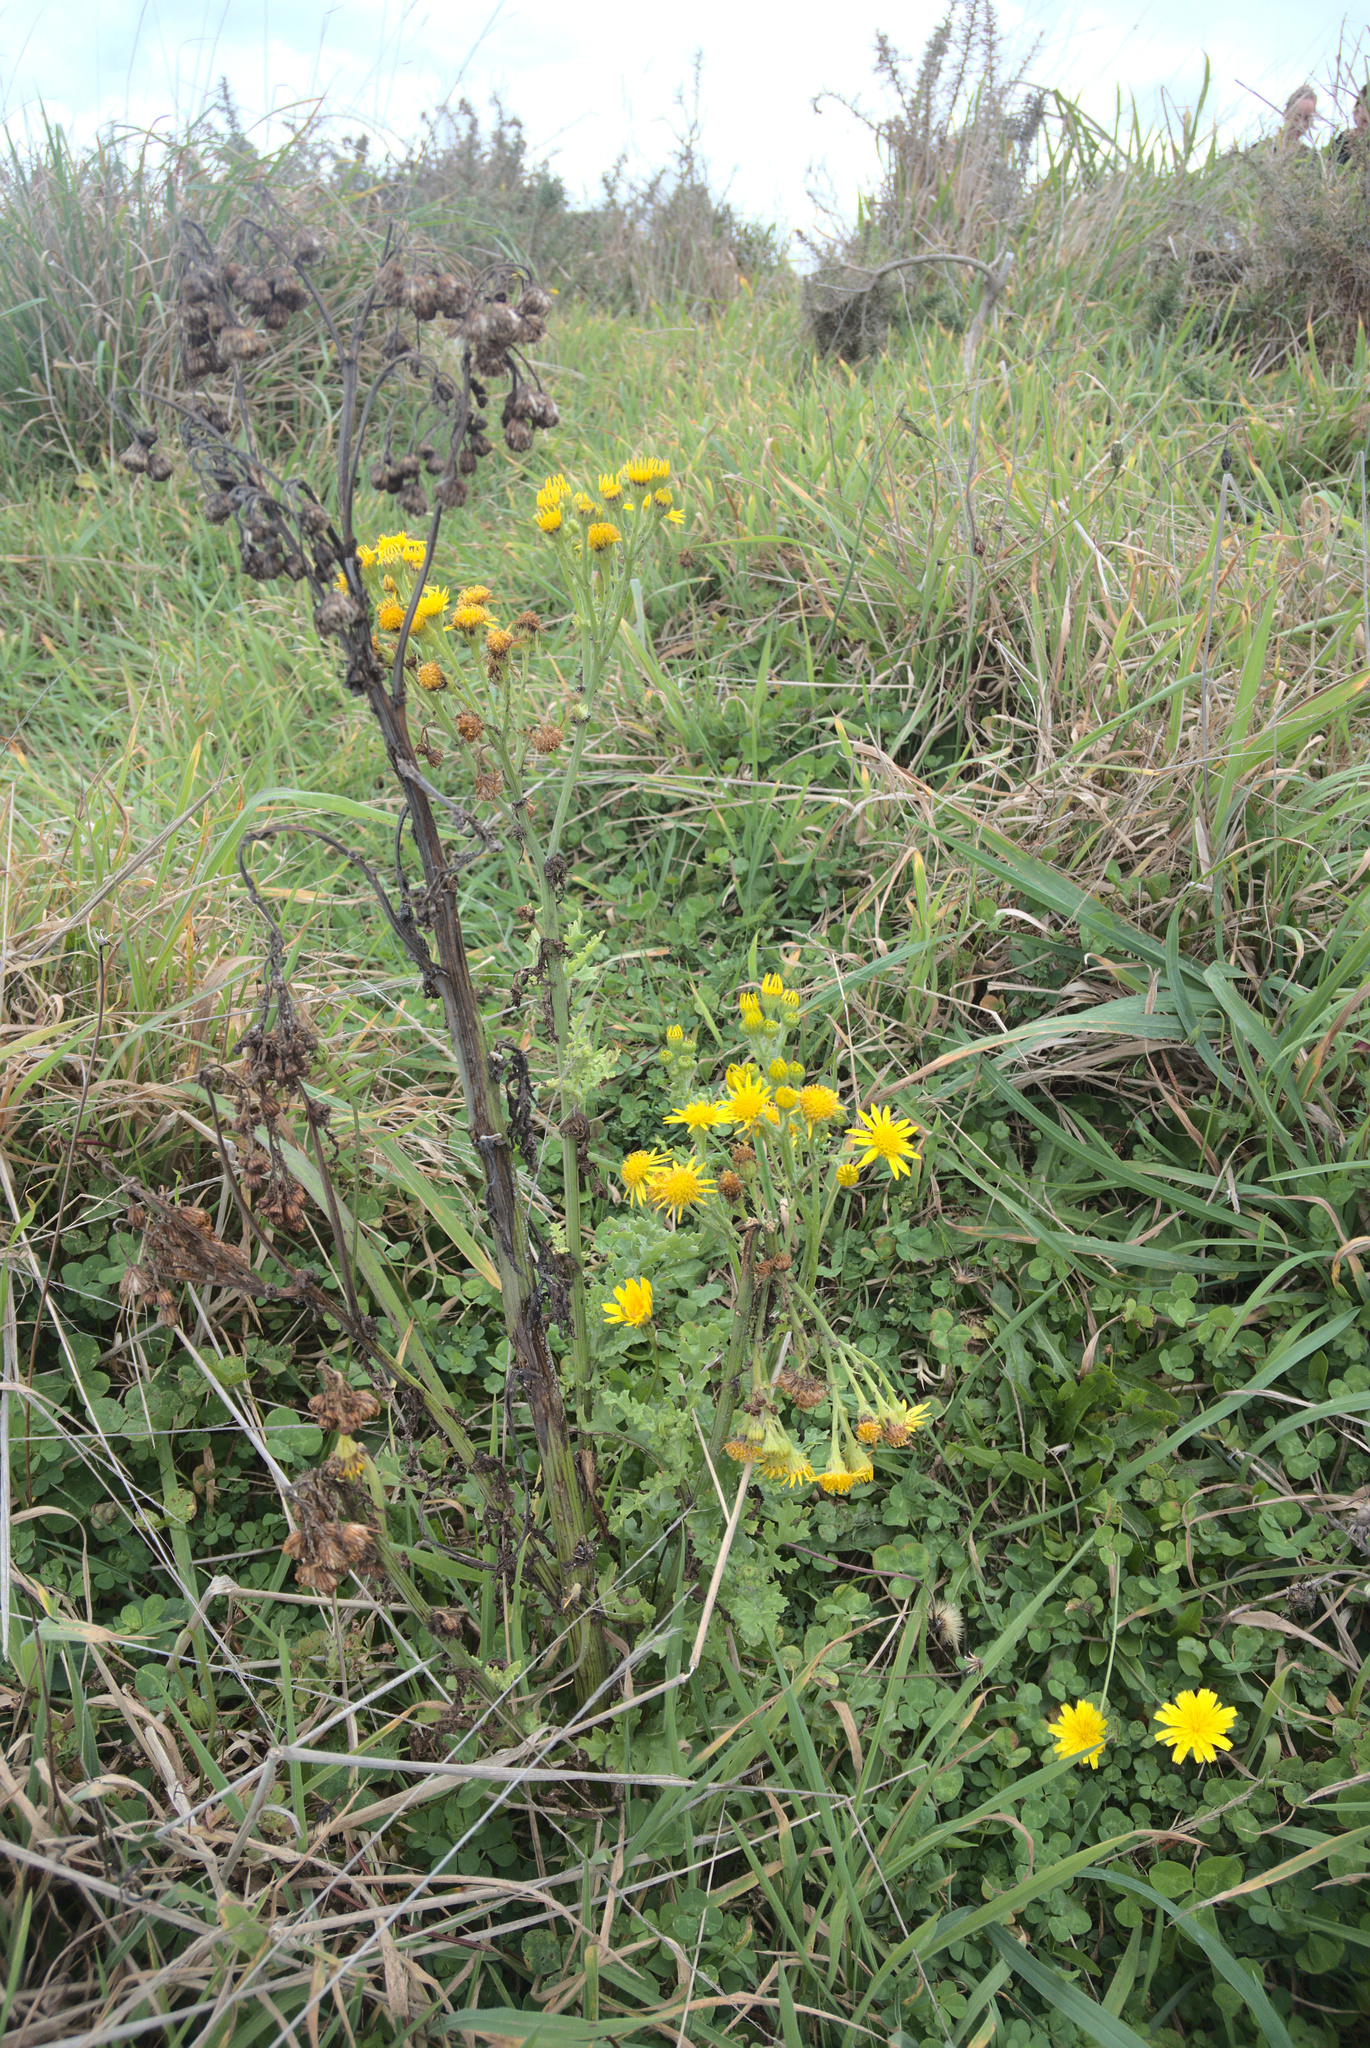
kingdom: Plantae
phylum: Tracheophyta
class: Magnoliopsida
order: Asterales
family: Asteraceae
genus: Jacobaea
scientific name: Jacobaea vulgaris
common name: Stinking willie
